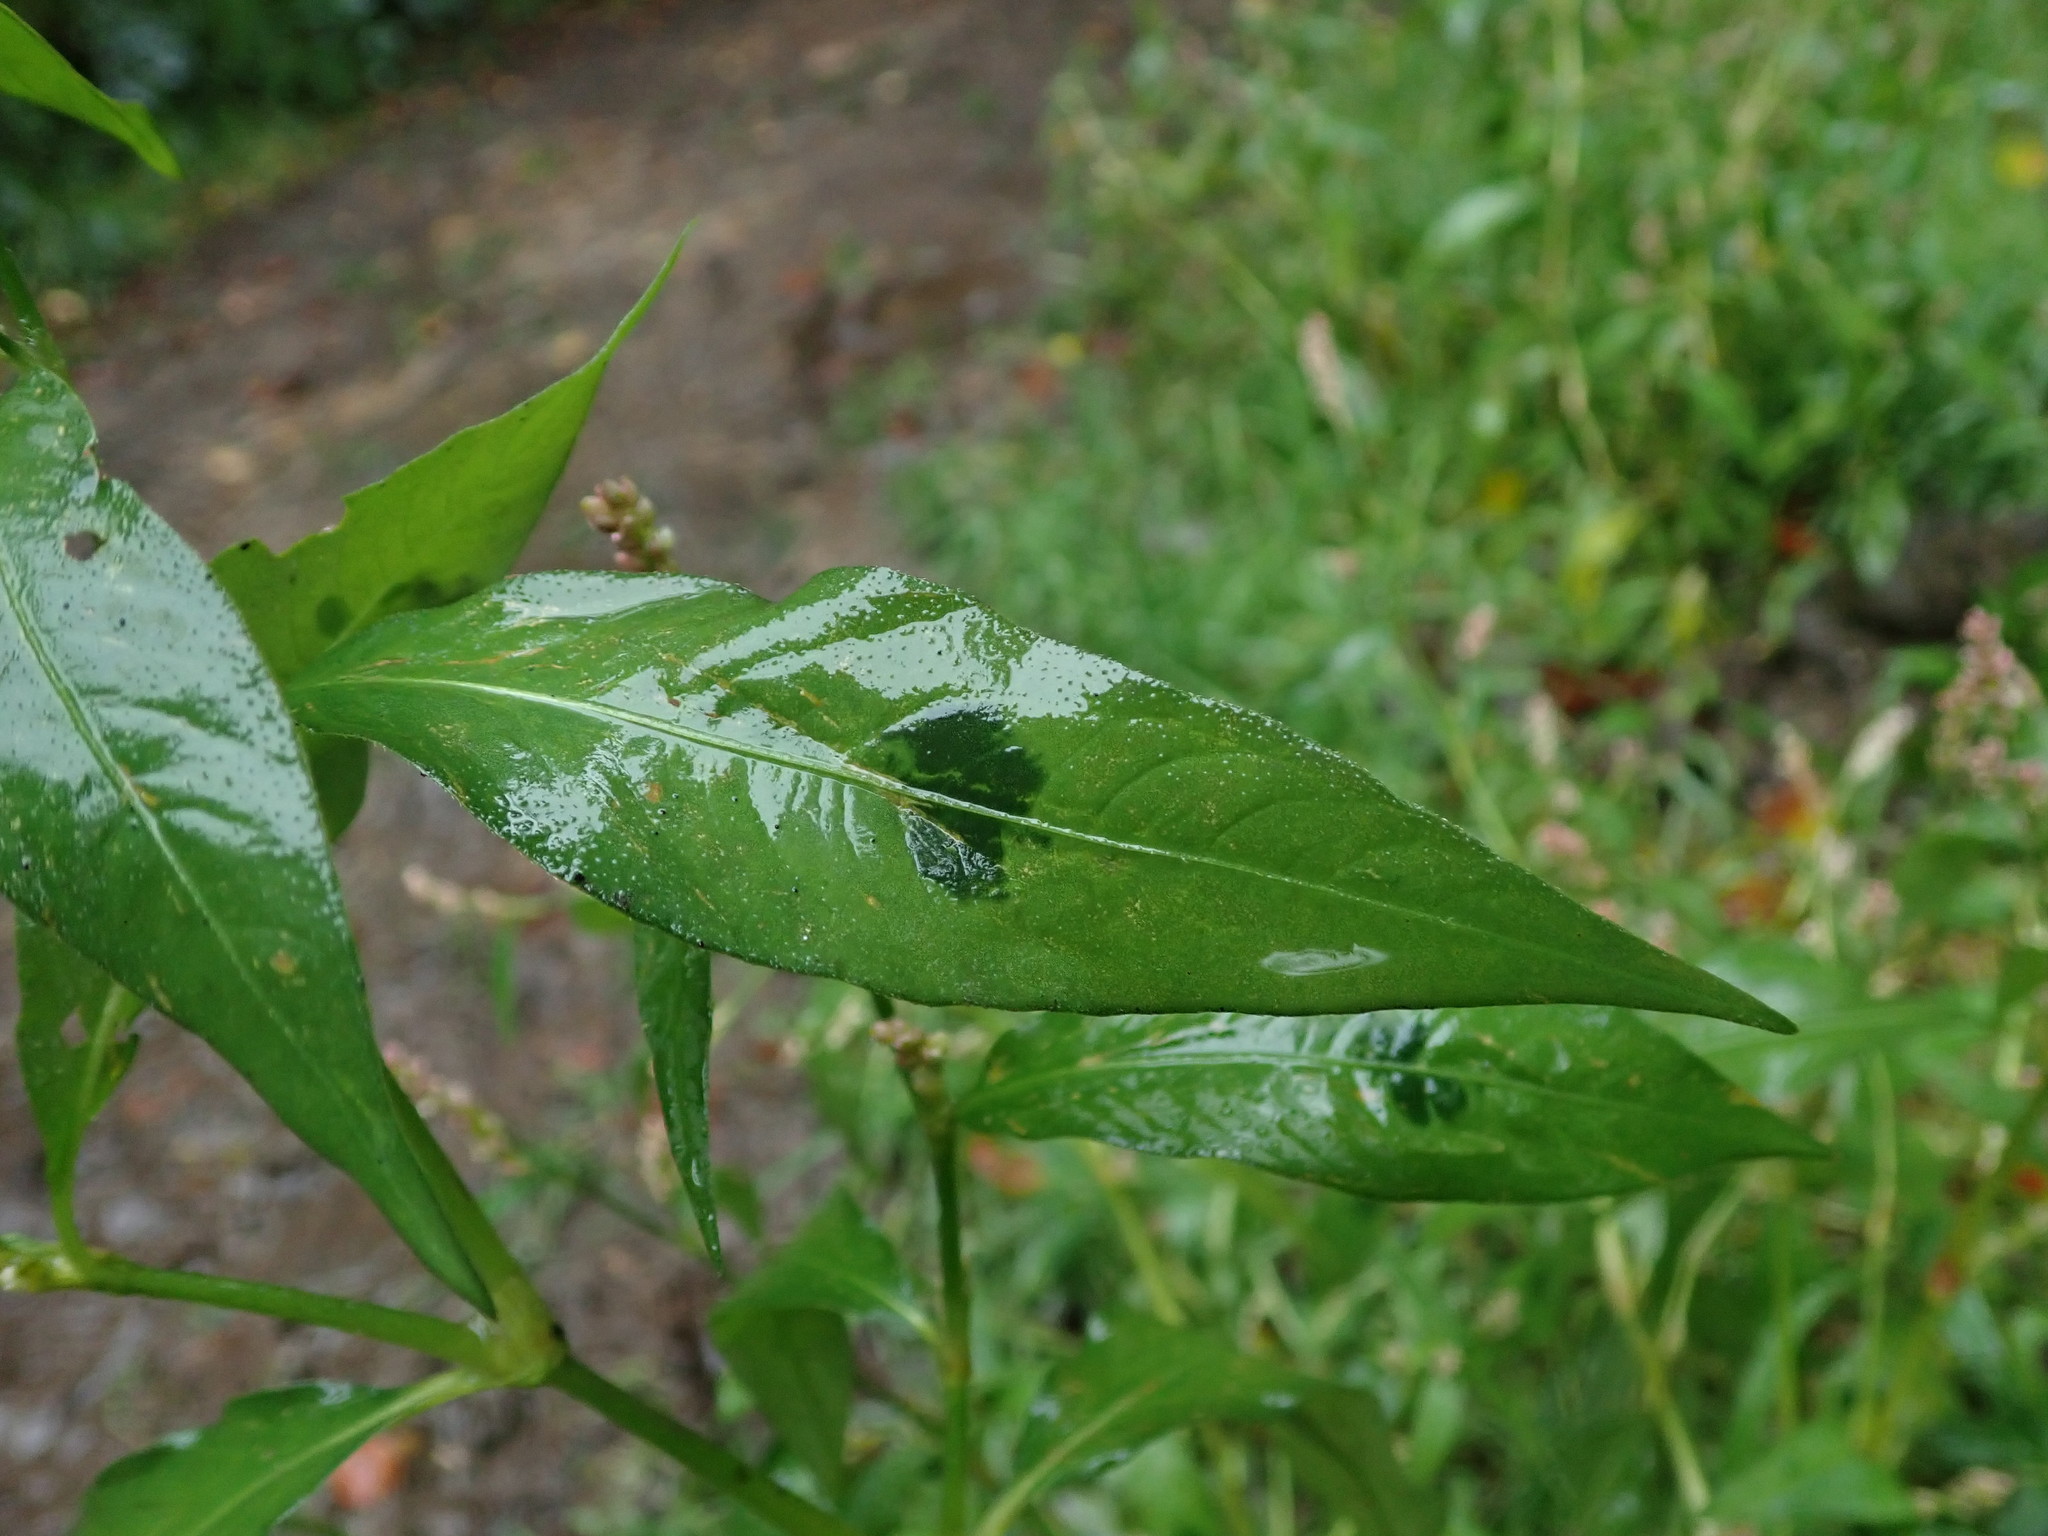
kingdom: Plantae
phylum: Tracheophyta
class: Magnoliopsida
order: Caryophyllales
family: Polygonaceae
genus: Persicaria
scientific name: Persicaria maculosa
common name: Redshank
